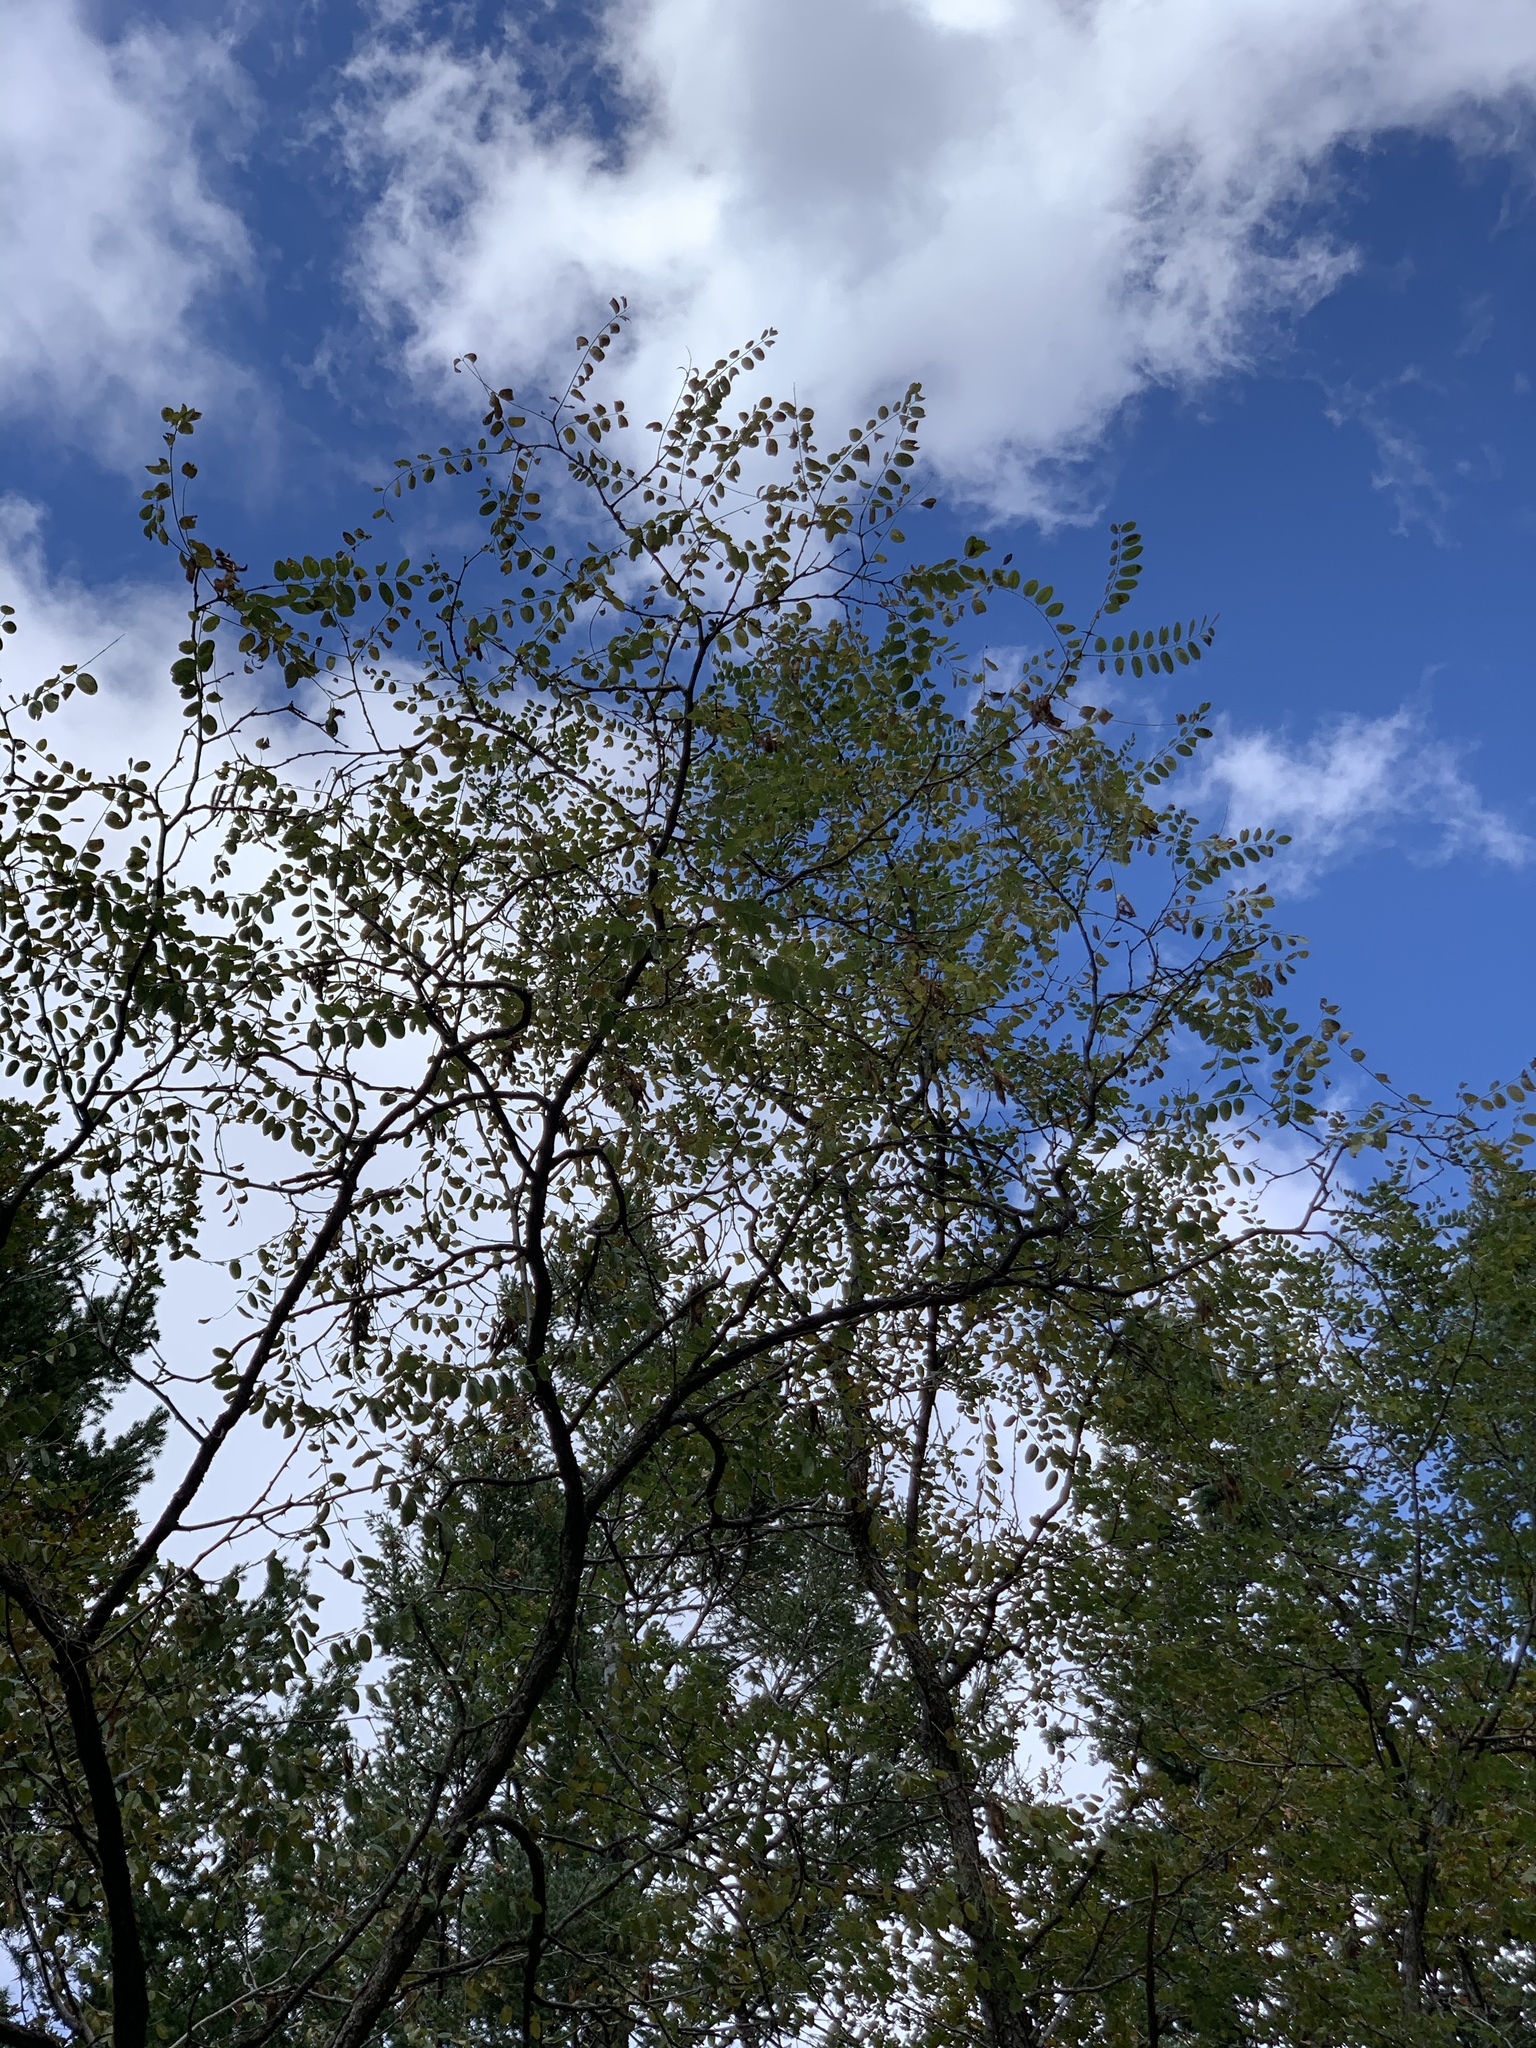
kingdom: Plantae
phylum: Tracheophyta
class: Magnoliopsida
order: Fabales
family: Fabaceae
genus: Robinia
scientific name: Robinia neomexicana
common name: New mexico locust
